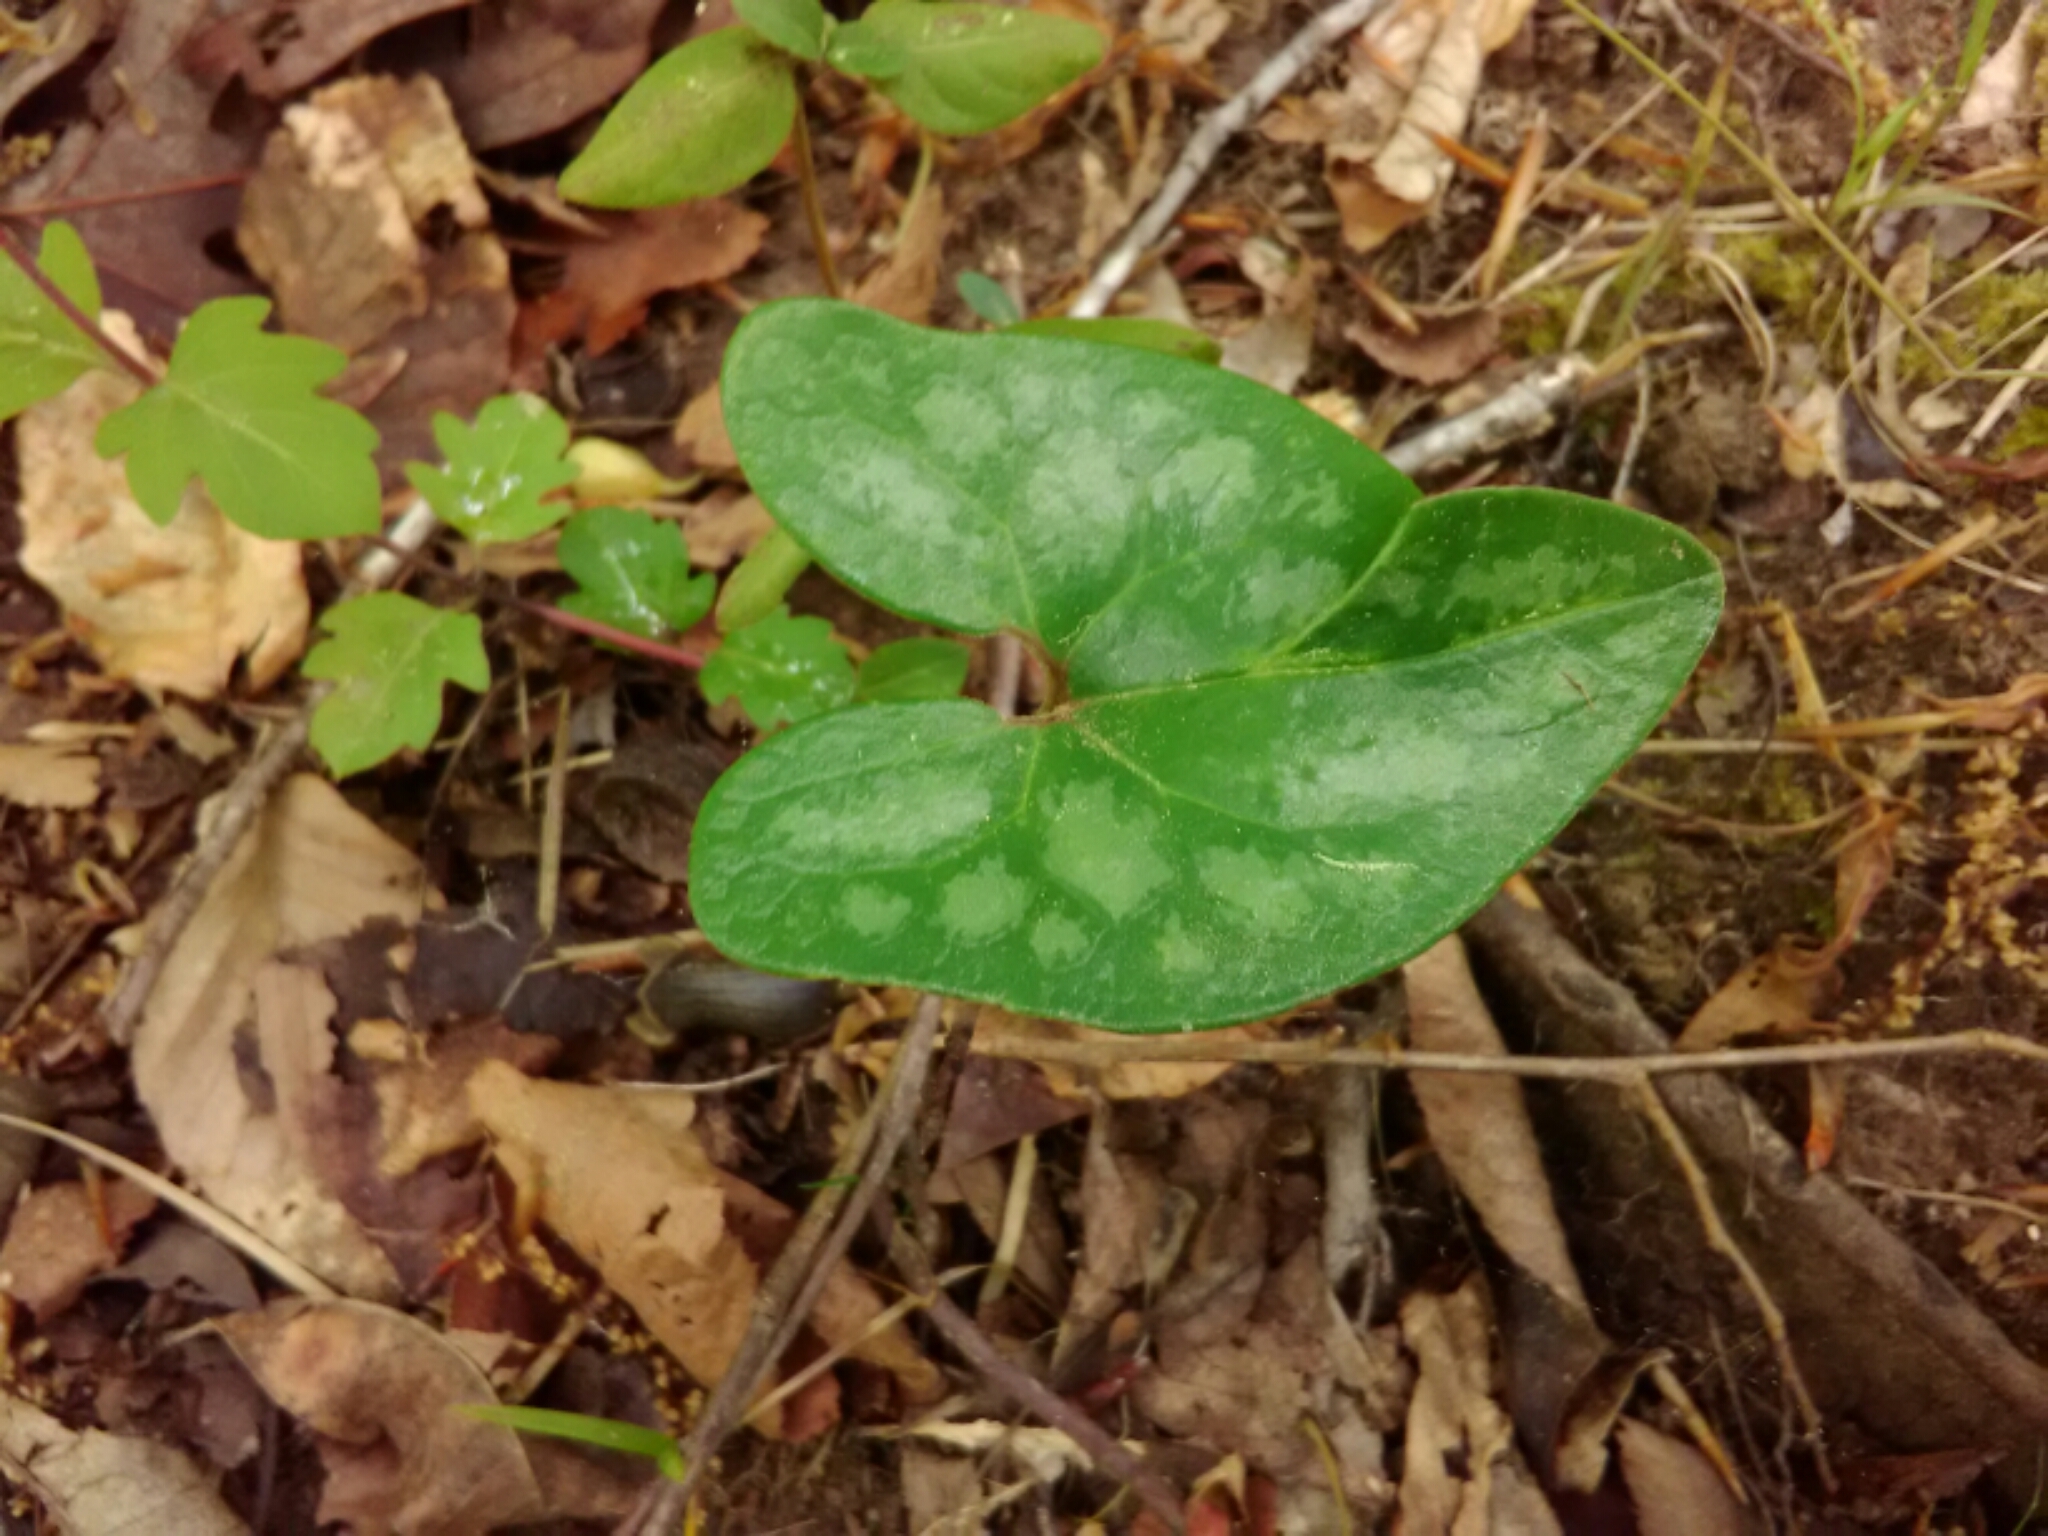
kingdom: Plantae
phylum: Tracheophyta
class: Magnoliopsida
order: Piperales
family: Aristolochiaceae
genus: Hexastylis
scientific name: Hexastylis arifolia
